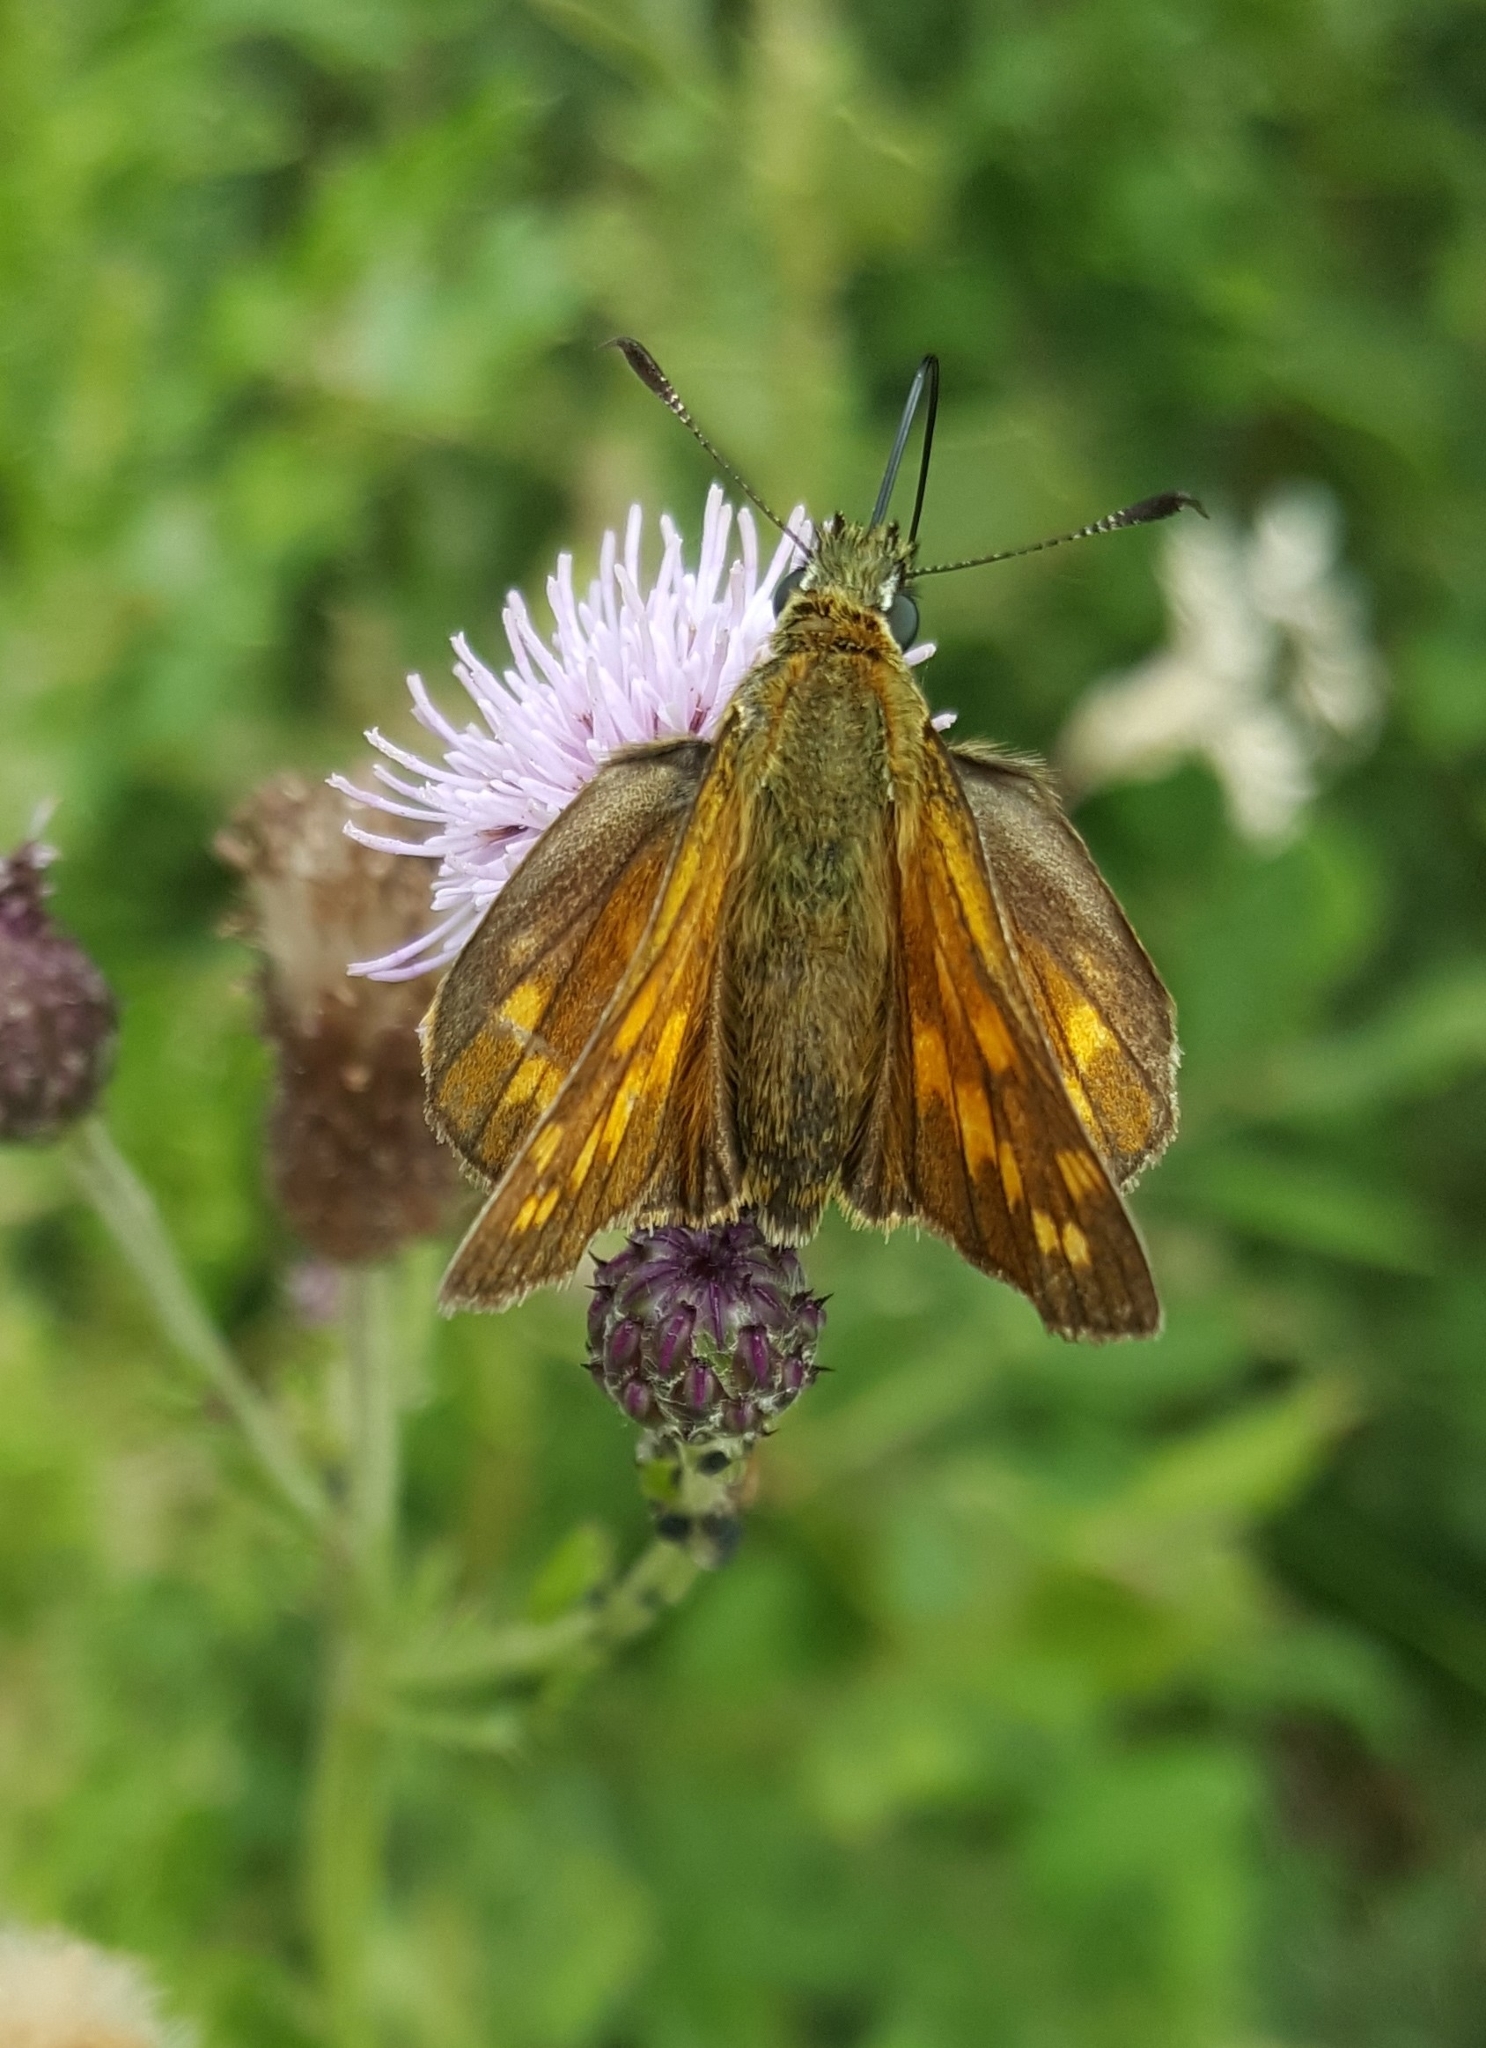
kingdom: Animalia
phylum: Arthropoda
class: Insecta
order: Lepidoptera
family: Hesperiidae
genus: Ochlodes
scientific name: Ochlodes venata
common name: Large skipper
